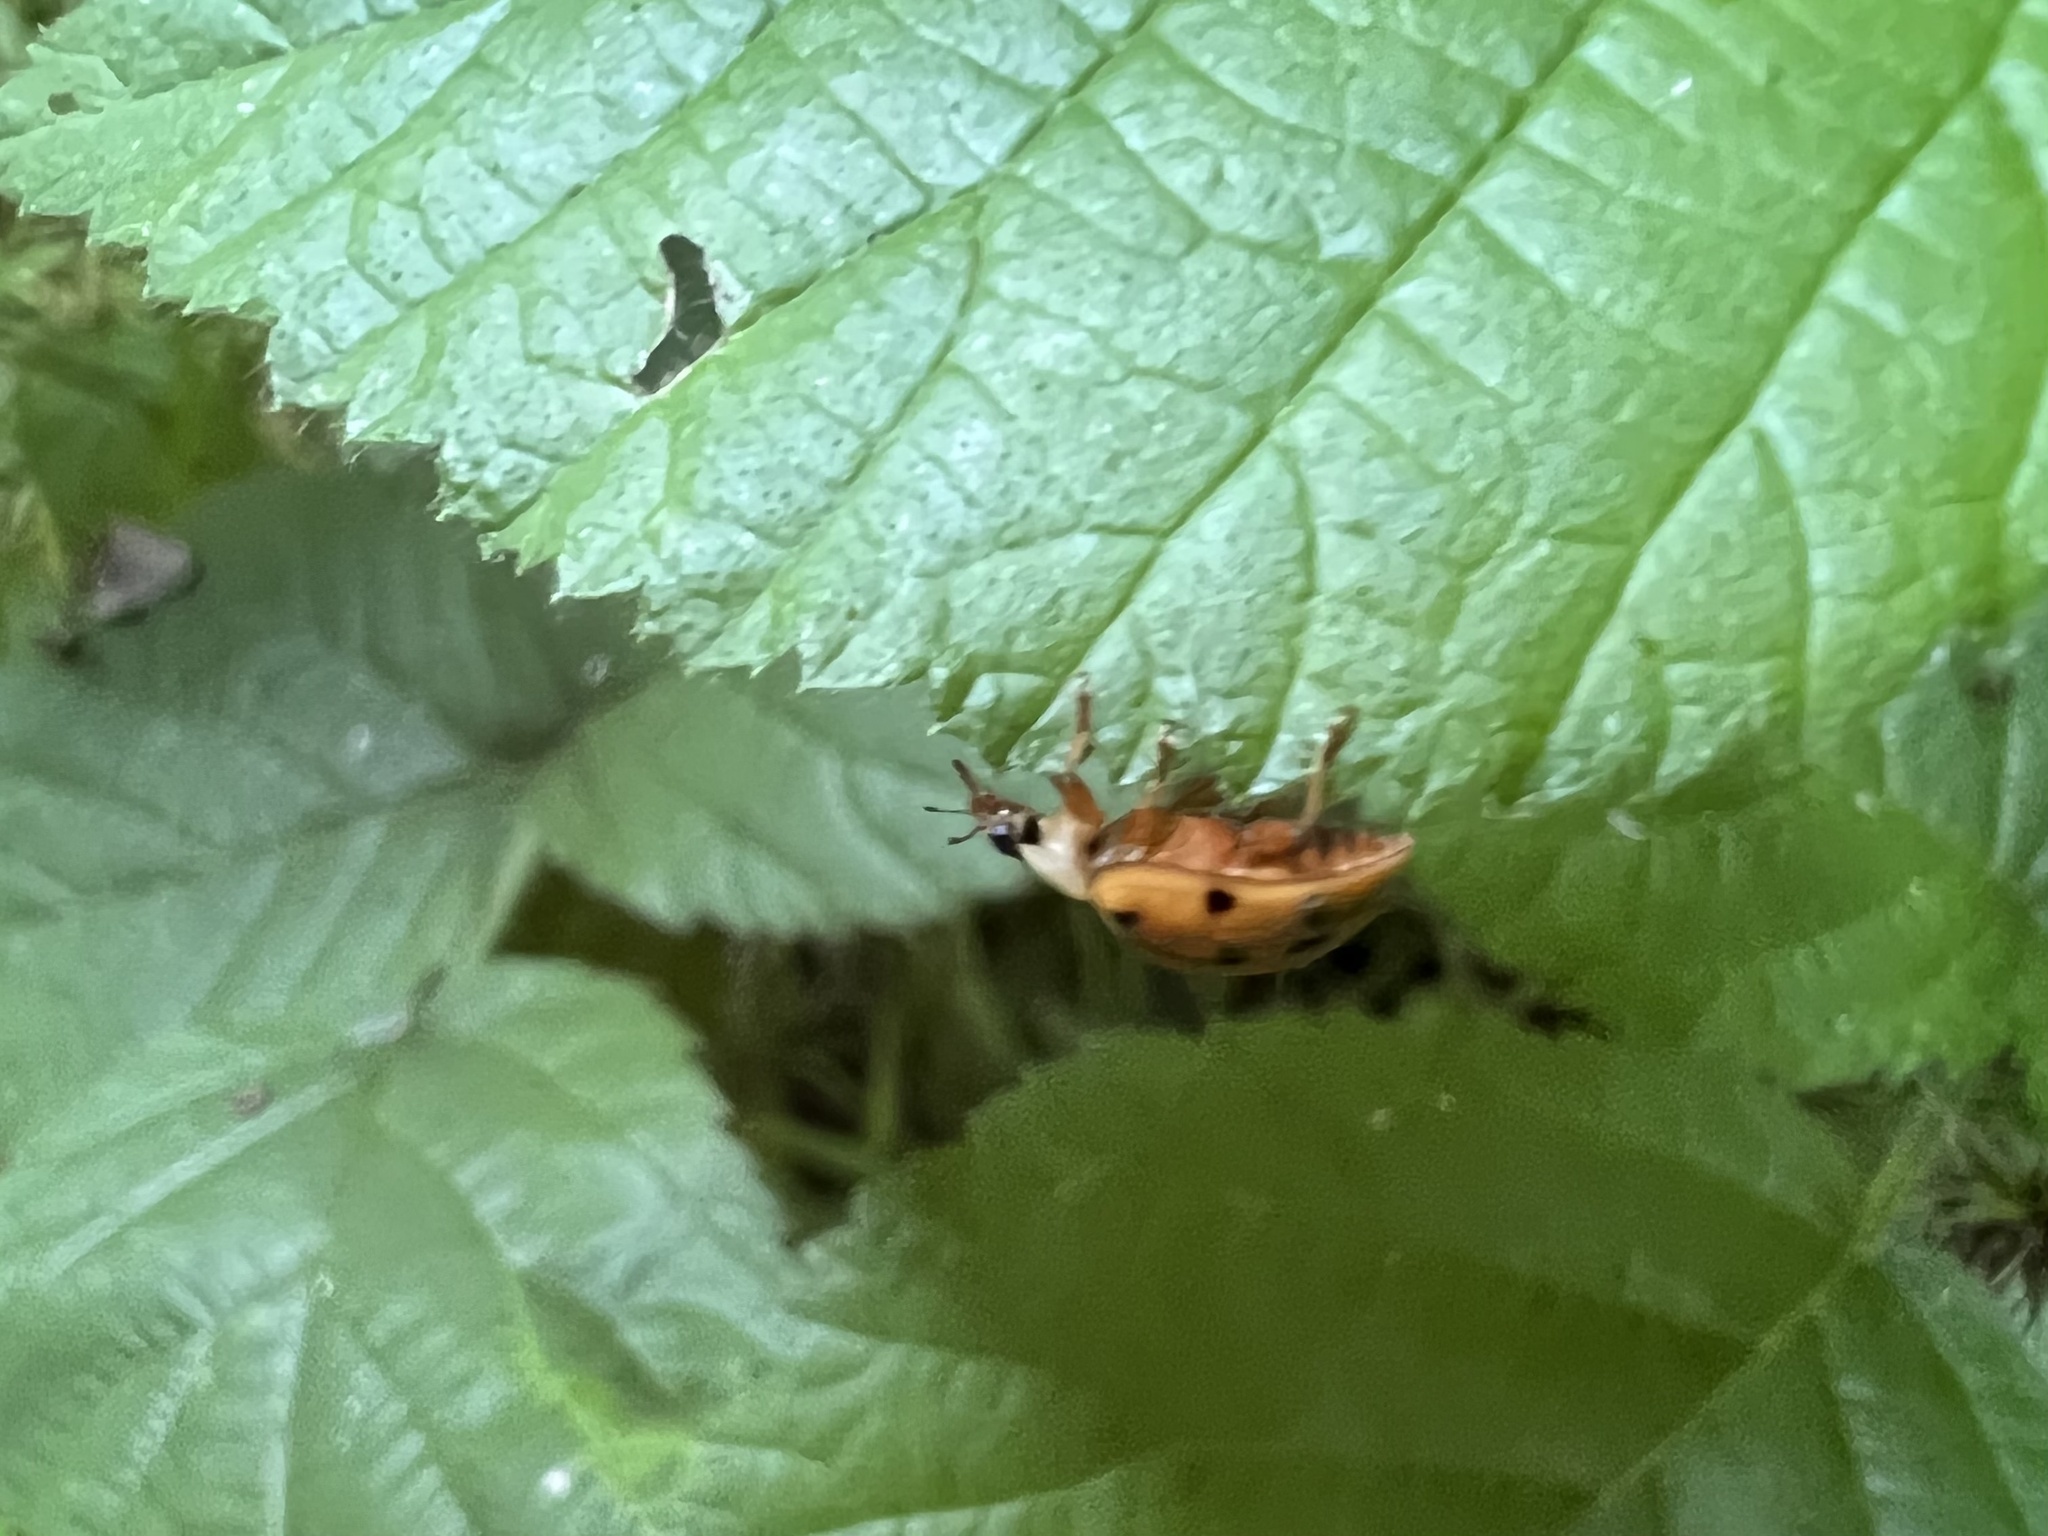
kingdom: Animalia
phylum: Arthropoda
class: Insecta
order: Coleoptera
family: Coccinellidae
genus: Harmonia
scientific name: Harmonia axyridis
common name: Harlequin ladybird
